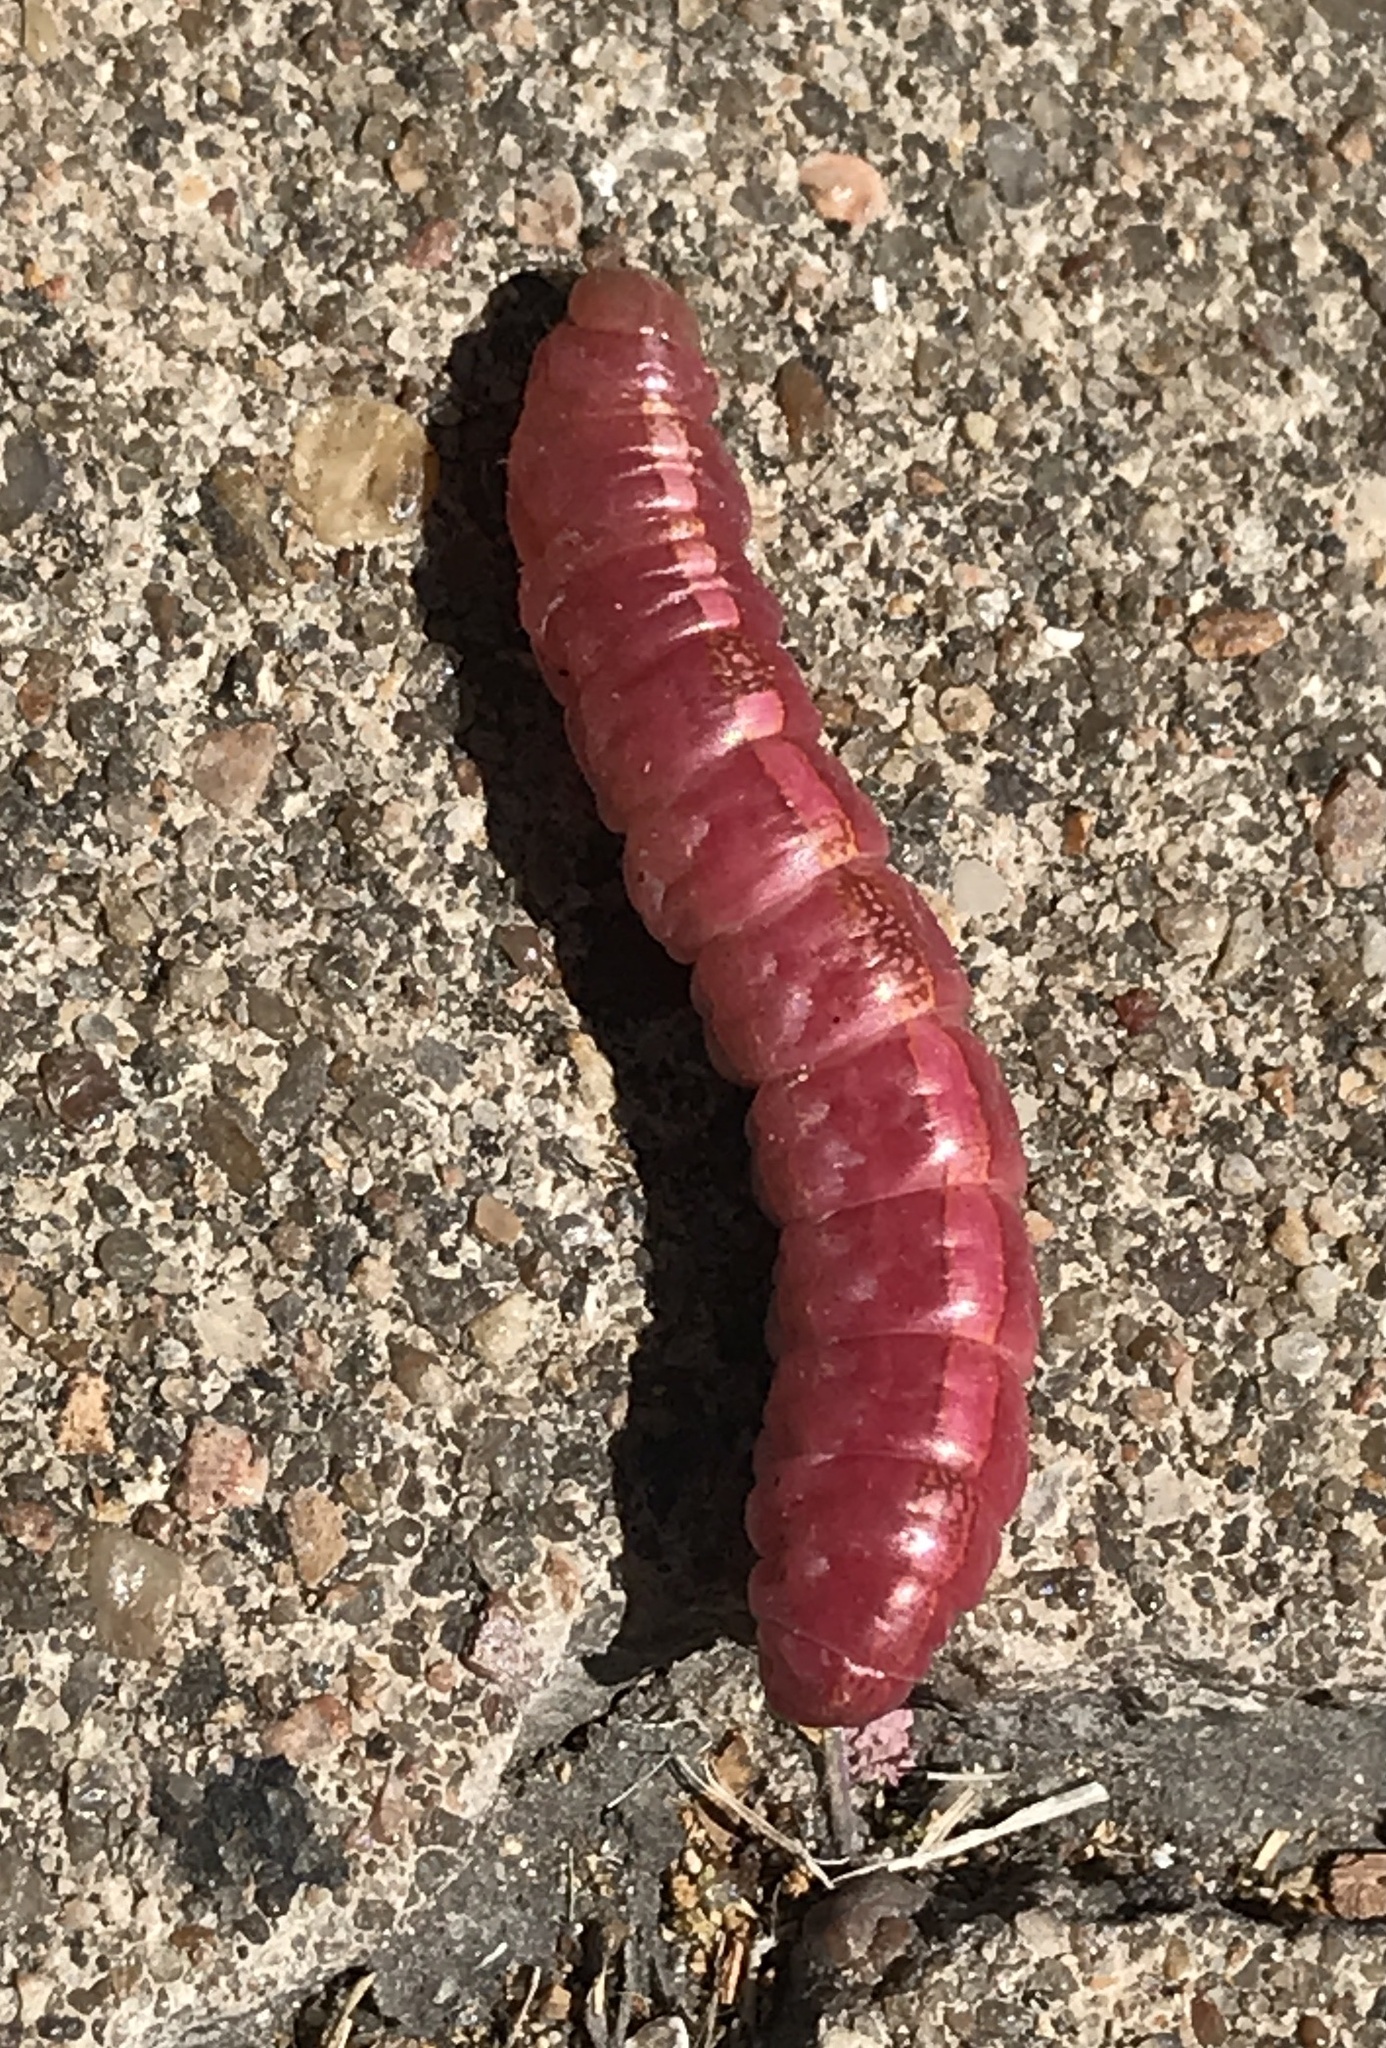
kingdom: Animalia
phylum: Arthropoda
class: Insecta
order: Lepidoptera
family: Notodontidae
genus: Misogada
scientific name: Misogada unicolor
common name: Drab prominent
